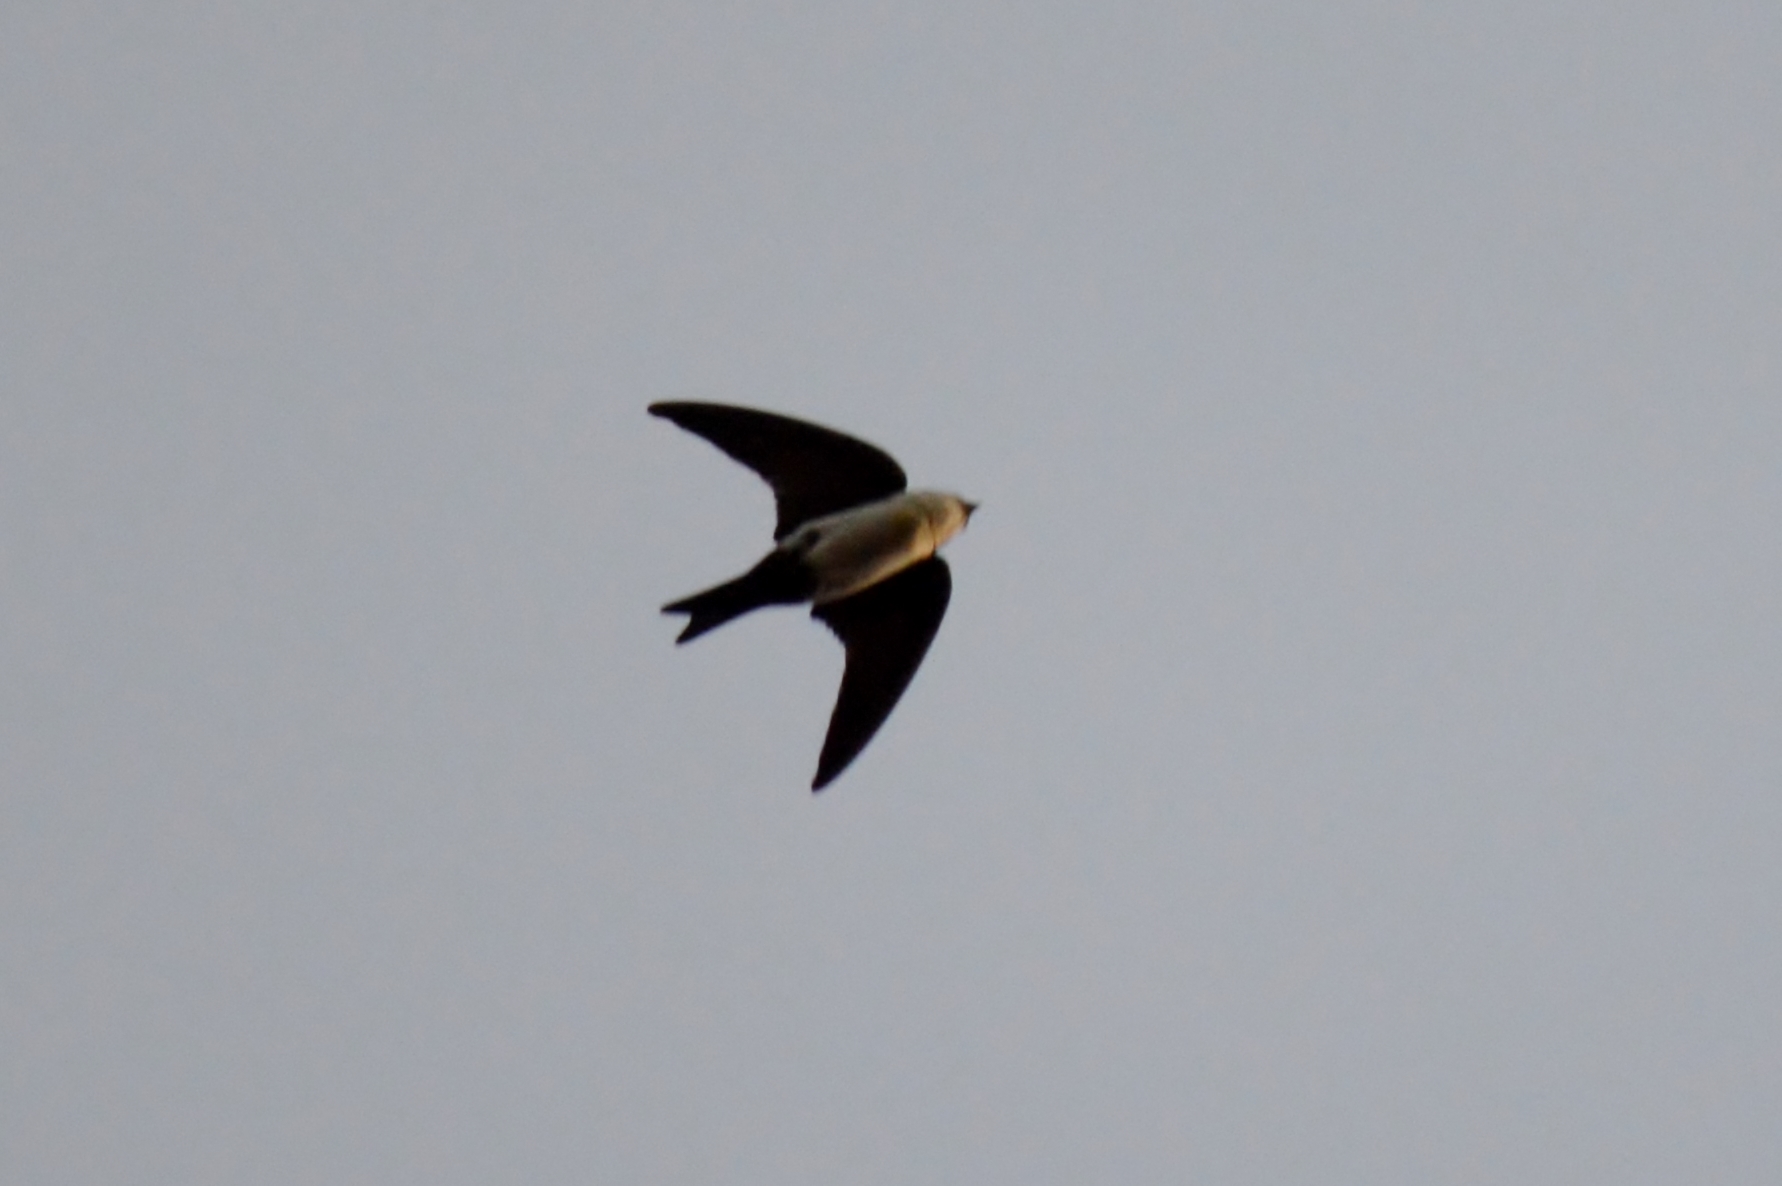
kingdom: Animalia
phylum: Chordata
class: Aves
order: Passeriformes
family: Hirundinidae
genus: Notiochelidon
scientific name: Notiochelidon cyanoleuca
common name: Blue-and-white swallow
